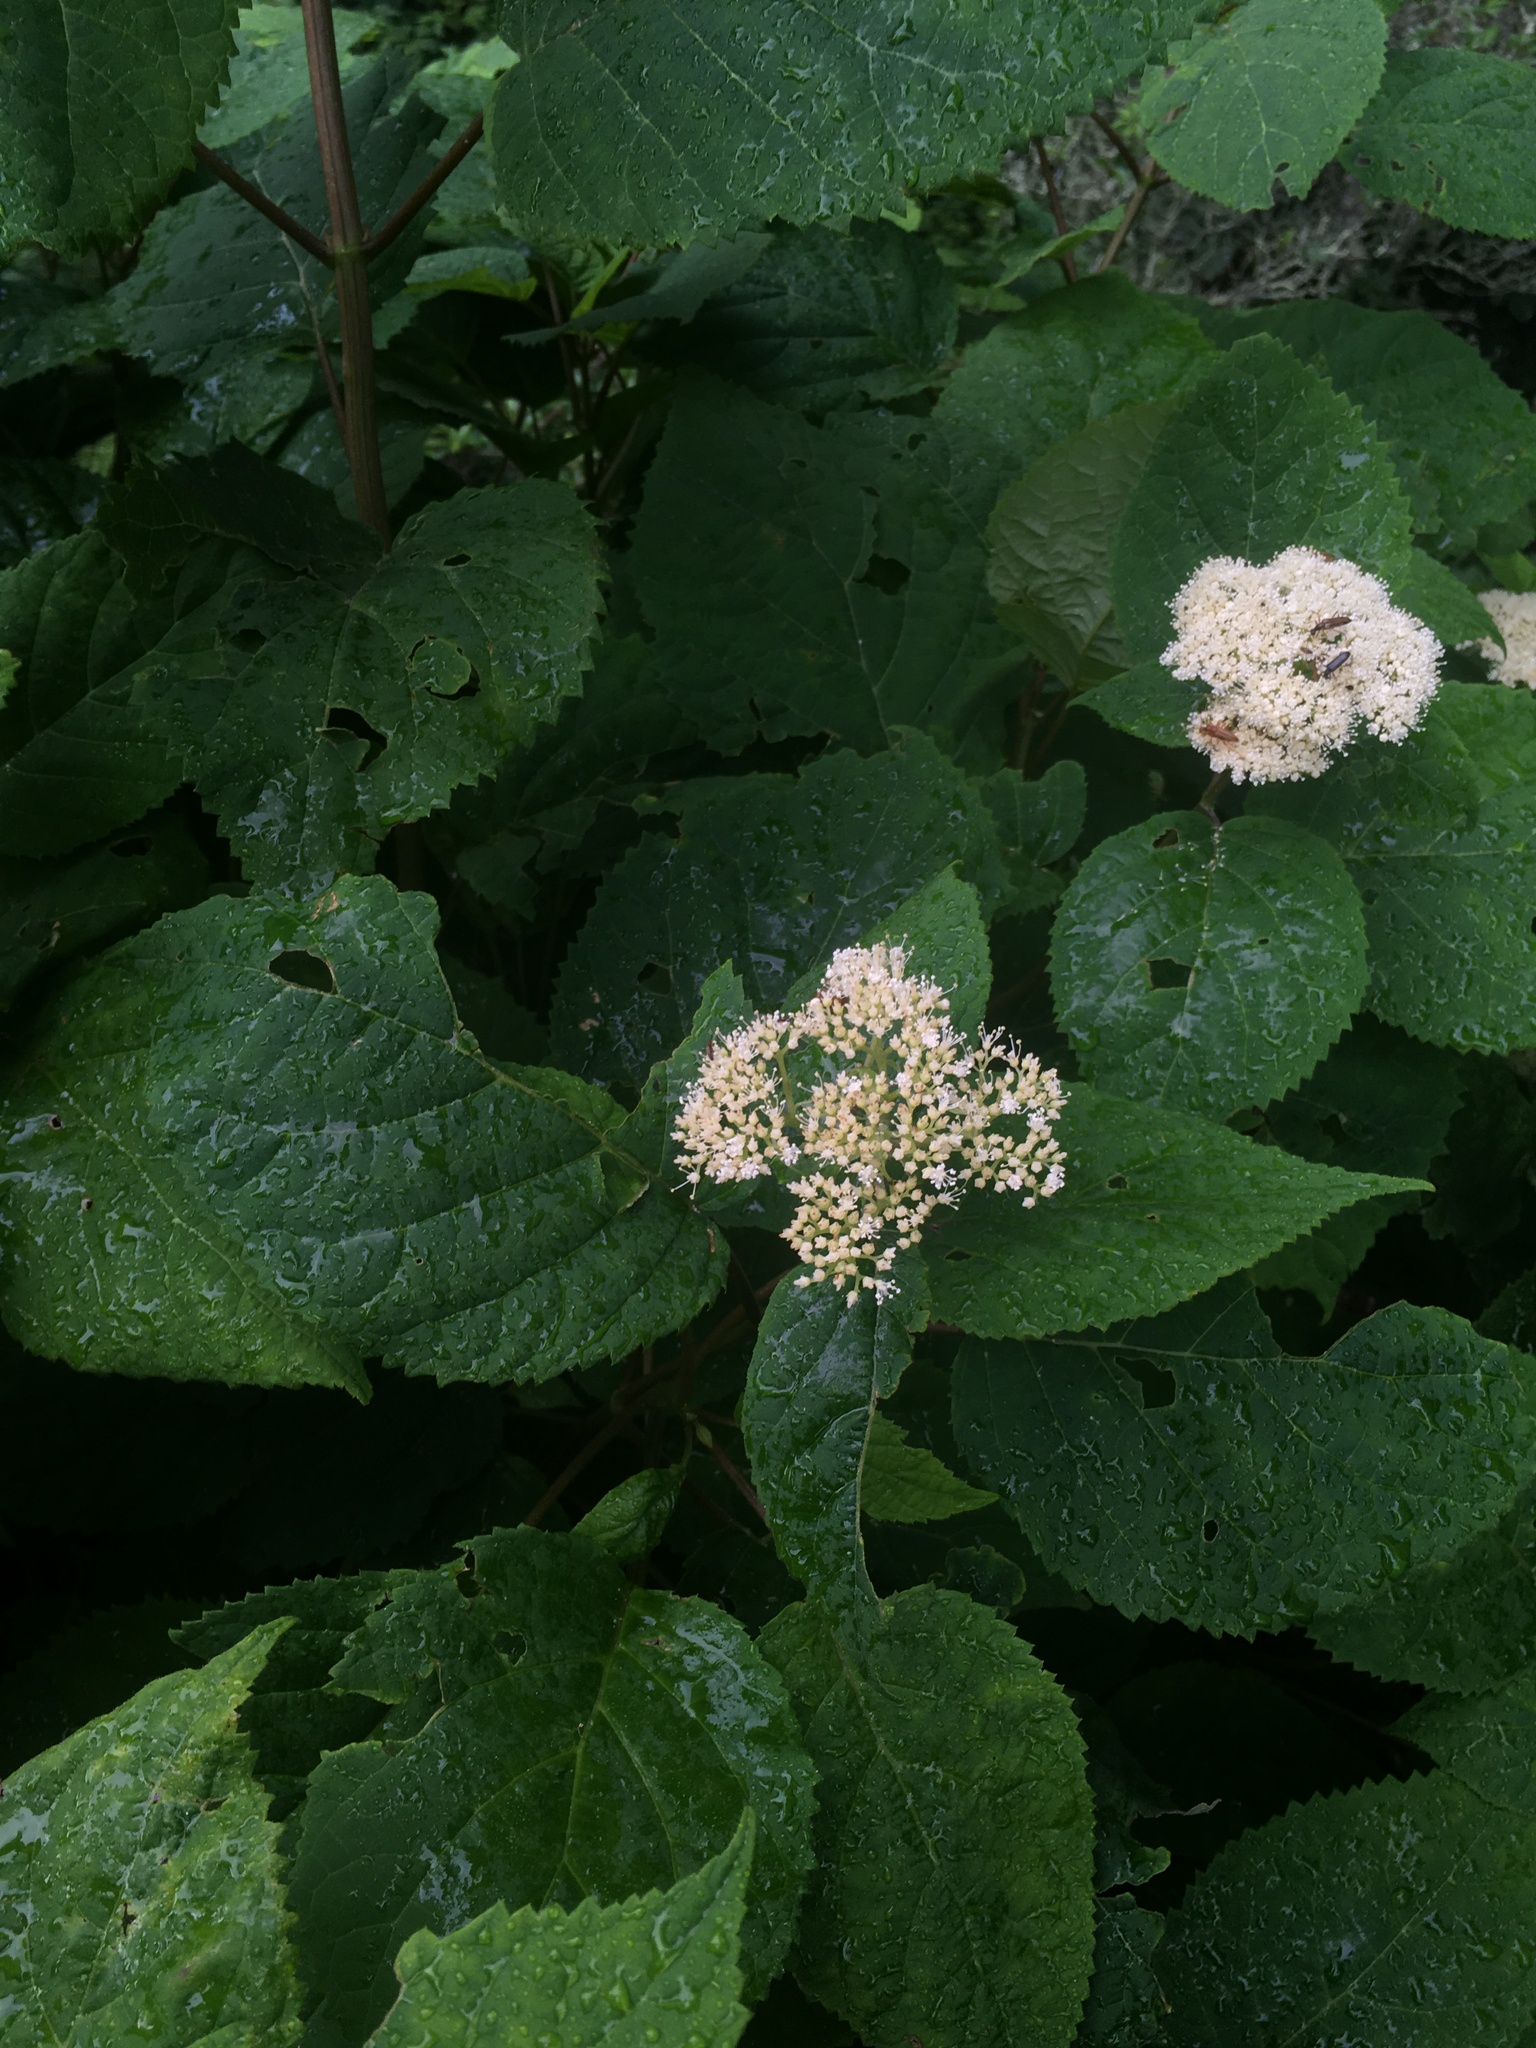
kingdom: Plantae
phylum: Tracheophyta
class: Magnoliopsida
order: Cornales
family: Hydrangeaceae
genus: Hydrangea
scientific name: Hydrangea arborescens
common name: Sevenbark
